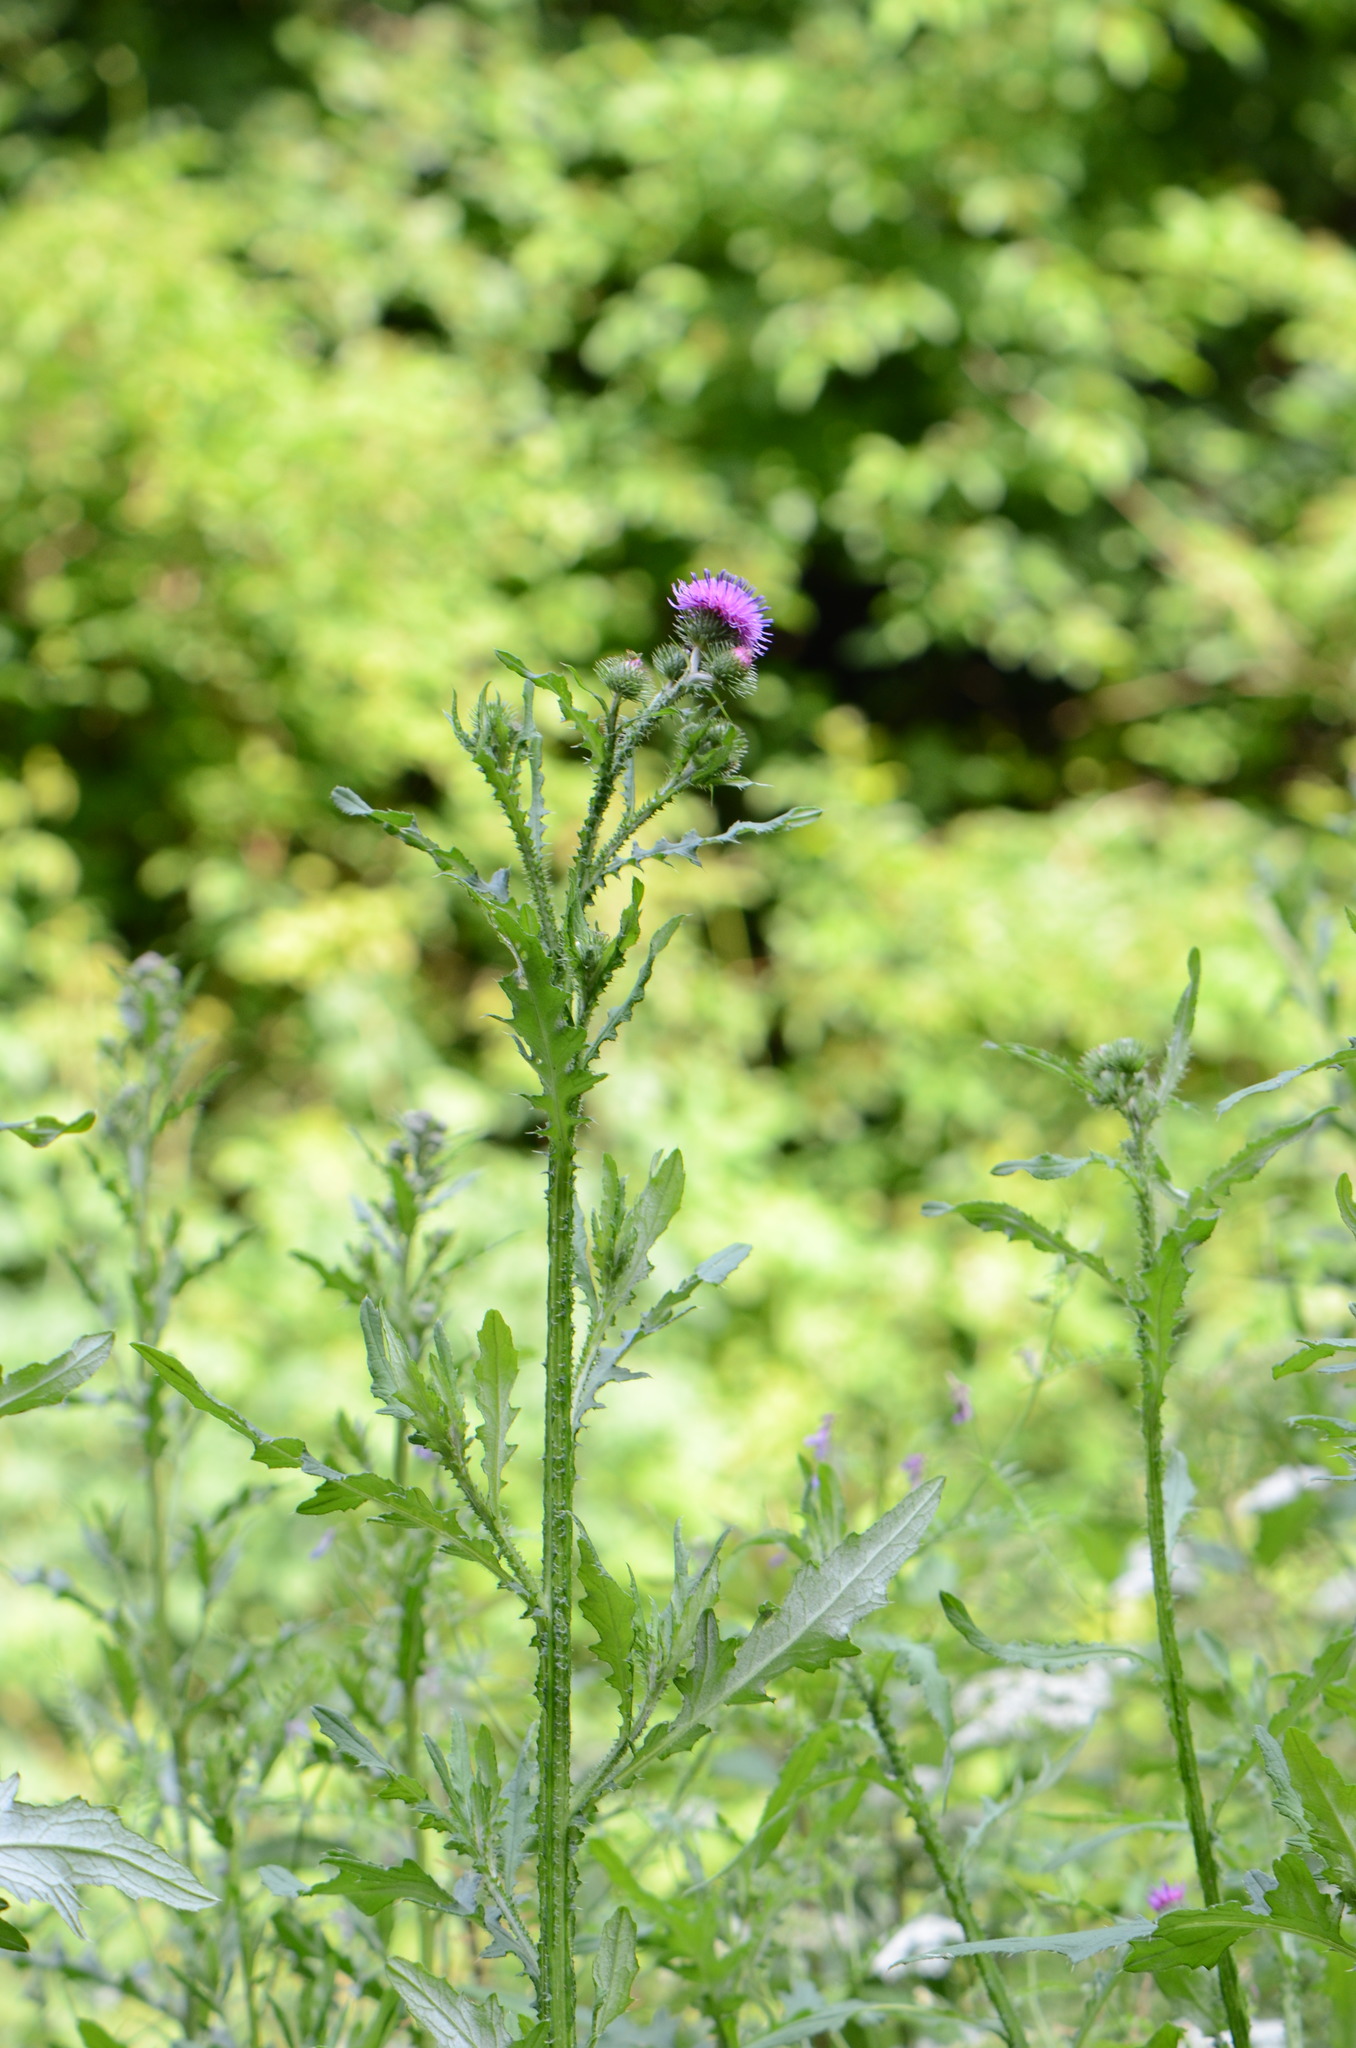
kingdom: Plantae
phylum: Tracheophyta
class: Magnoliopsida
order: Asterales
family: Asteraceae
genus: Carduus
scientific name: Carduus crispus
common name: Welted thistle
